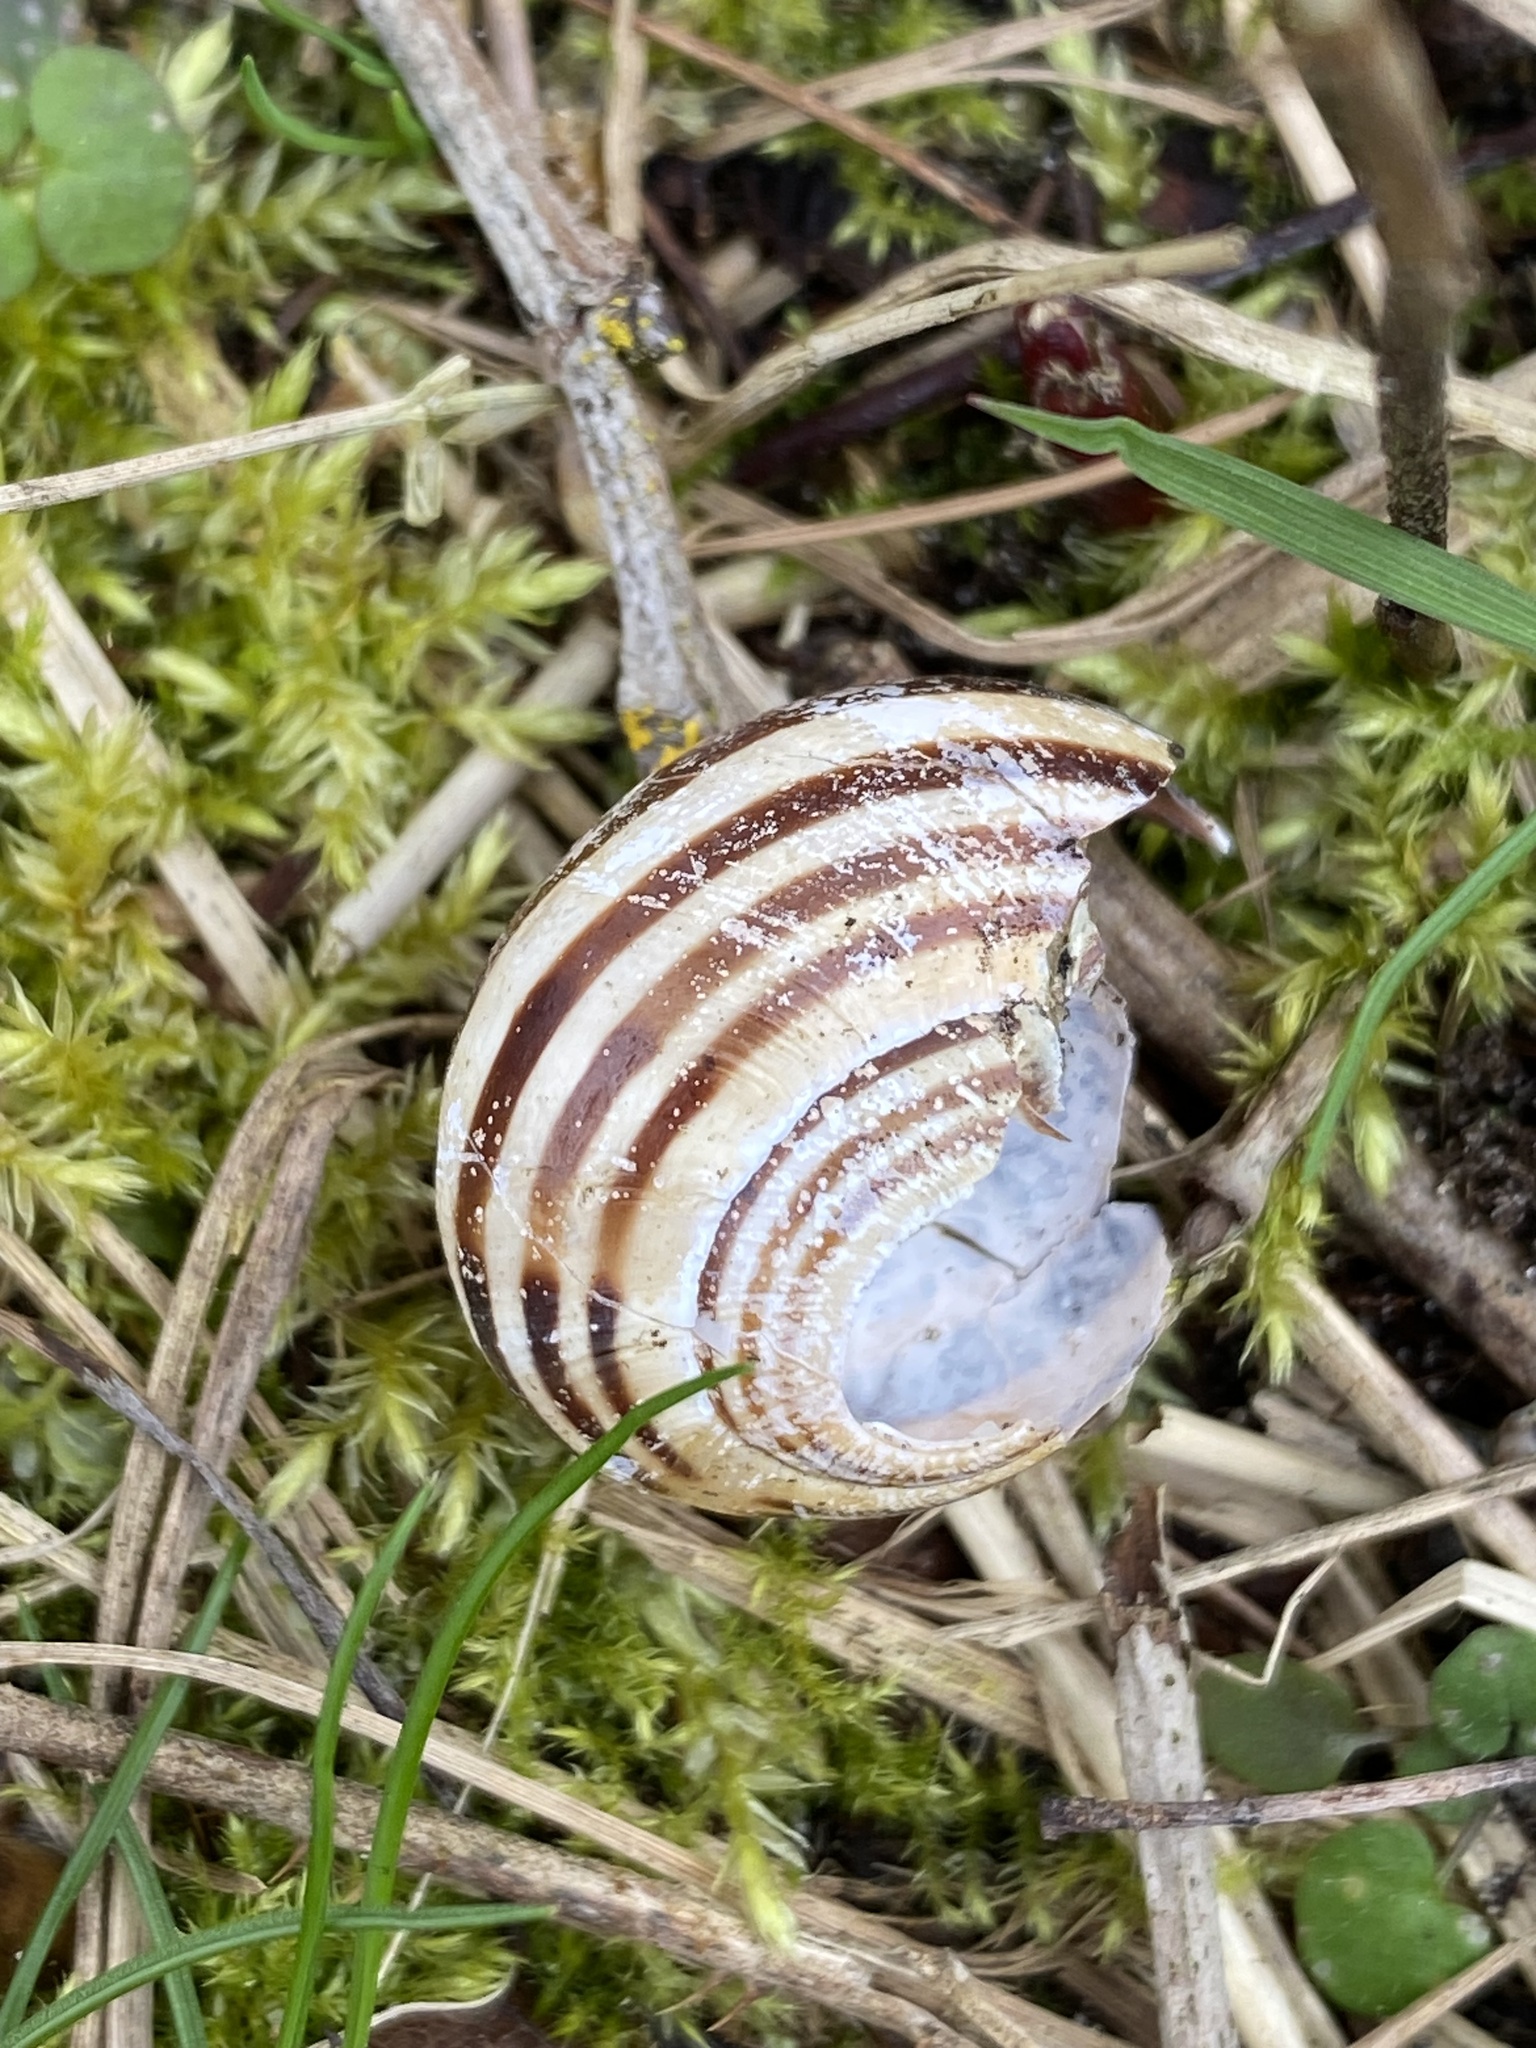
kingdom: Animalia
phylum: Mollusca
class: Gastropoda
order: Stylommatophora
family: Helicidae
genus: Cepaea
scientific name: Cepaea nemoralis
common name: Grovesnail
